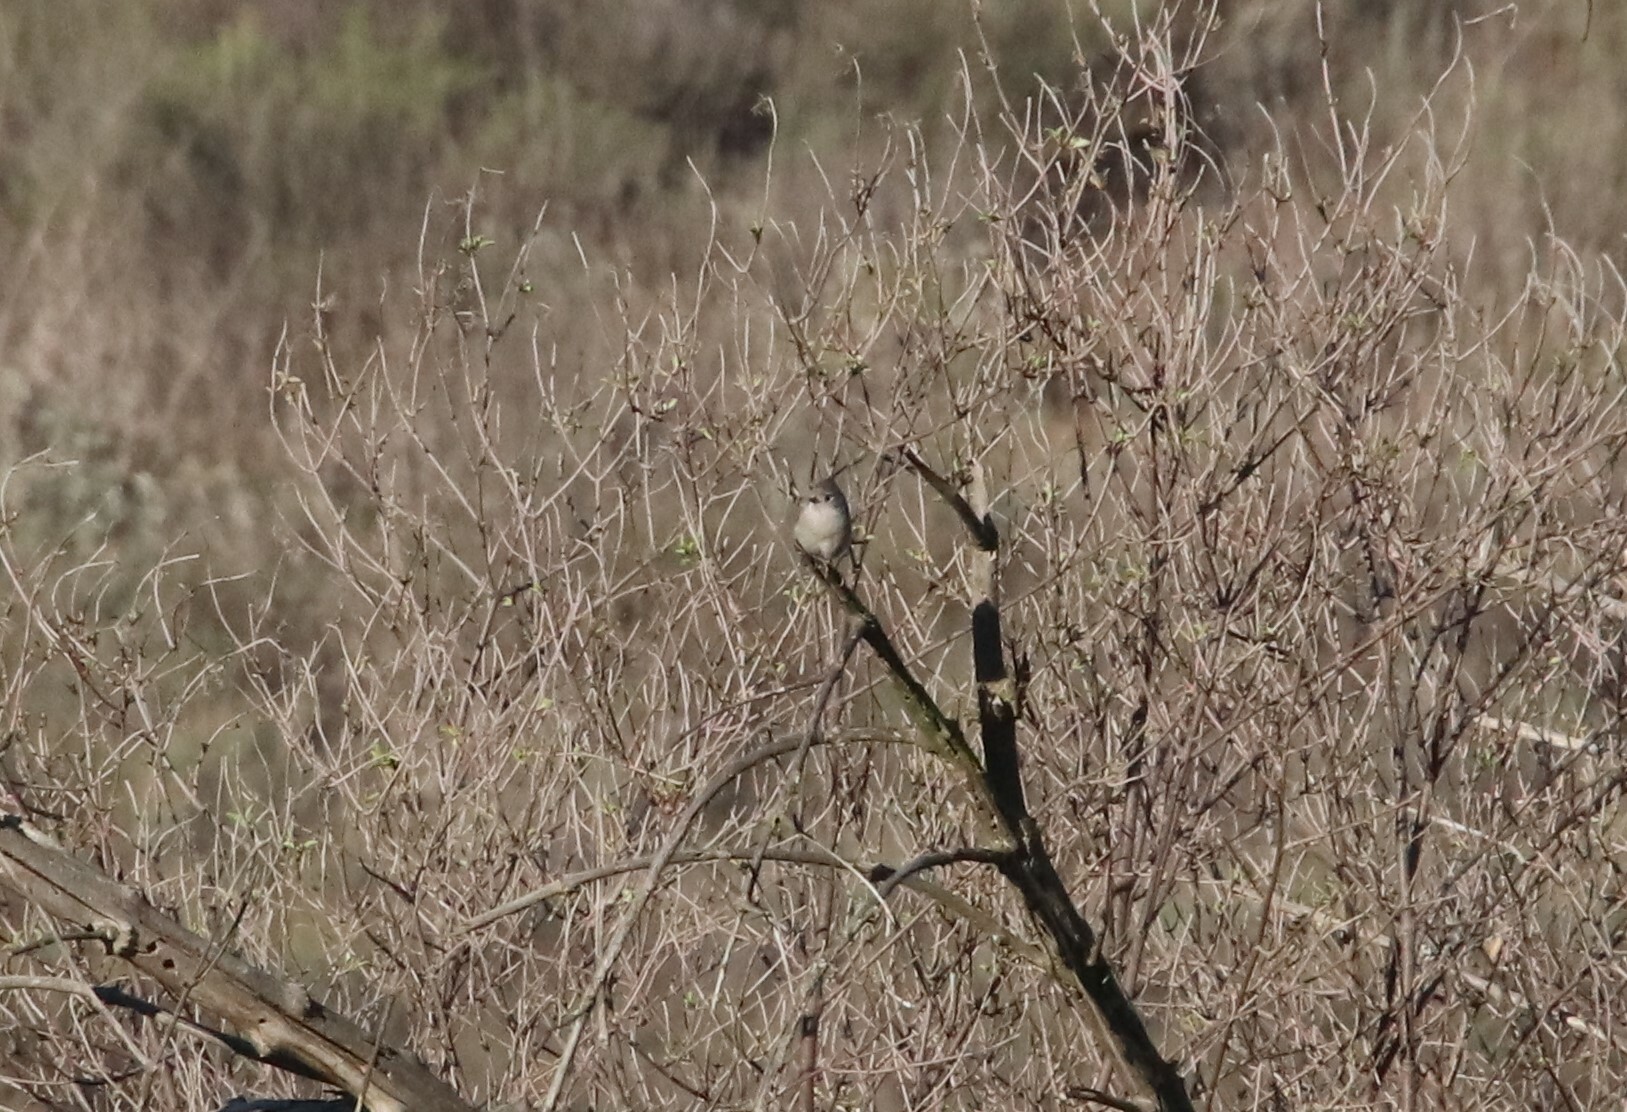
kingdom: Animalia
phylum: Chordata
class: Aves
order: Passeriformes
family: Paridae
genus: Baeolophus
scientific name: Baeolophus inornatus
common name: Oak titmouse
